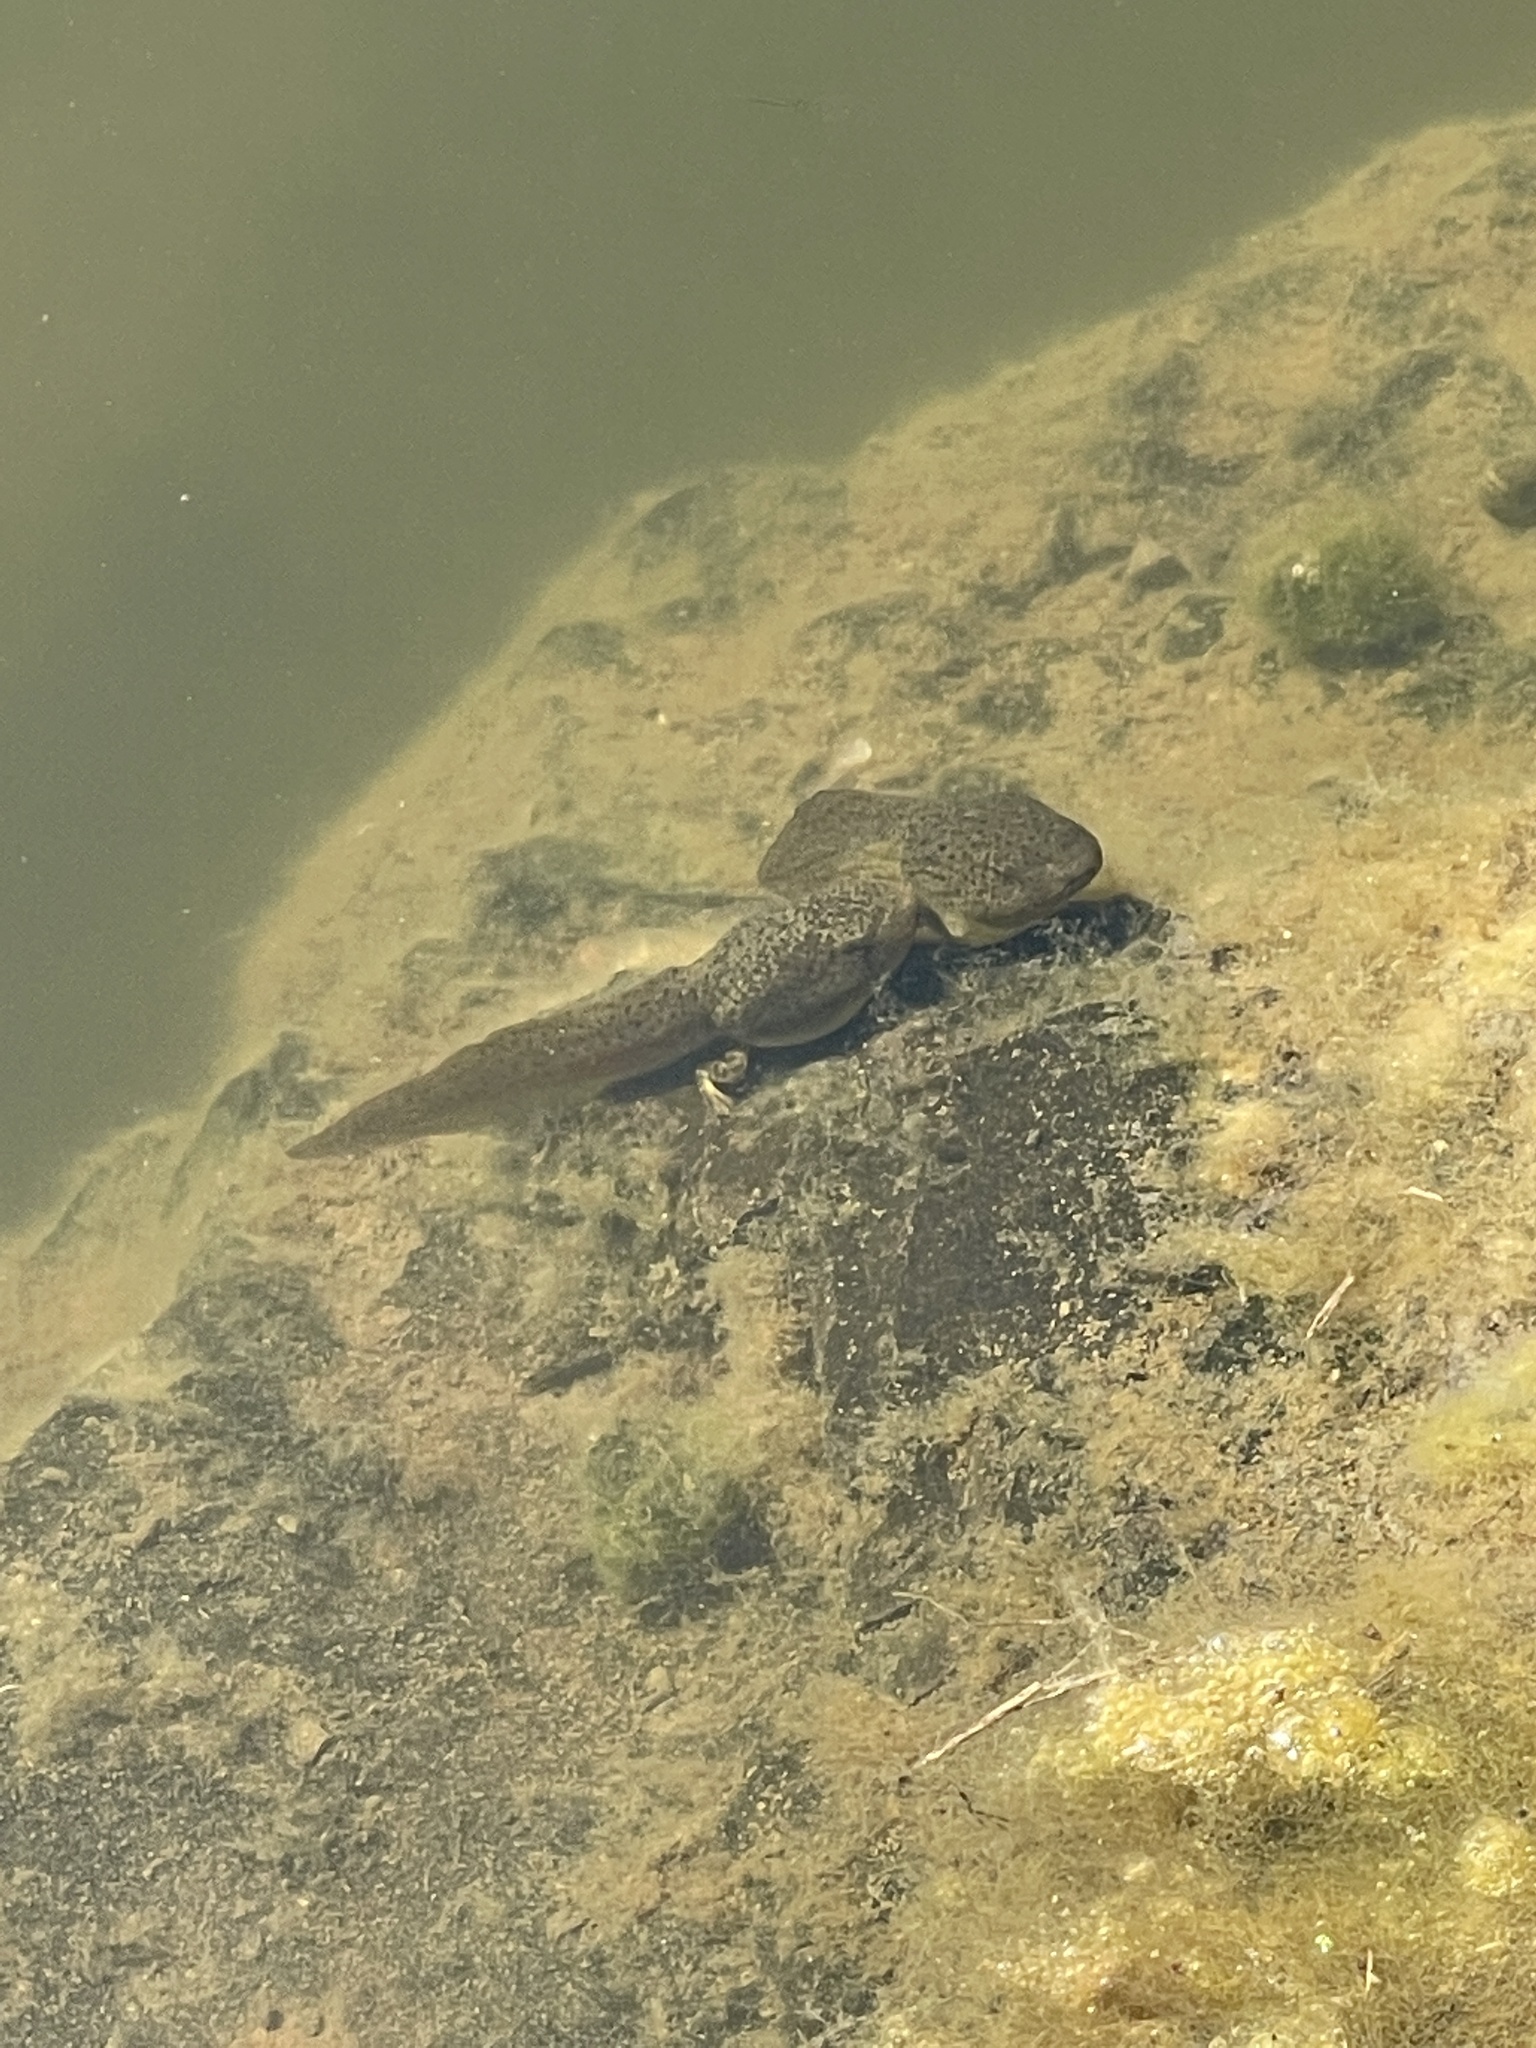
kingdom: Animalia
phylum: Chordata
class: Amphibia
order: Anura
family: Ranidae
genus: Lithobates
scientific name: Lithobates catesbeianus
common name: American bullfrog
